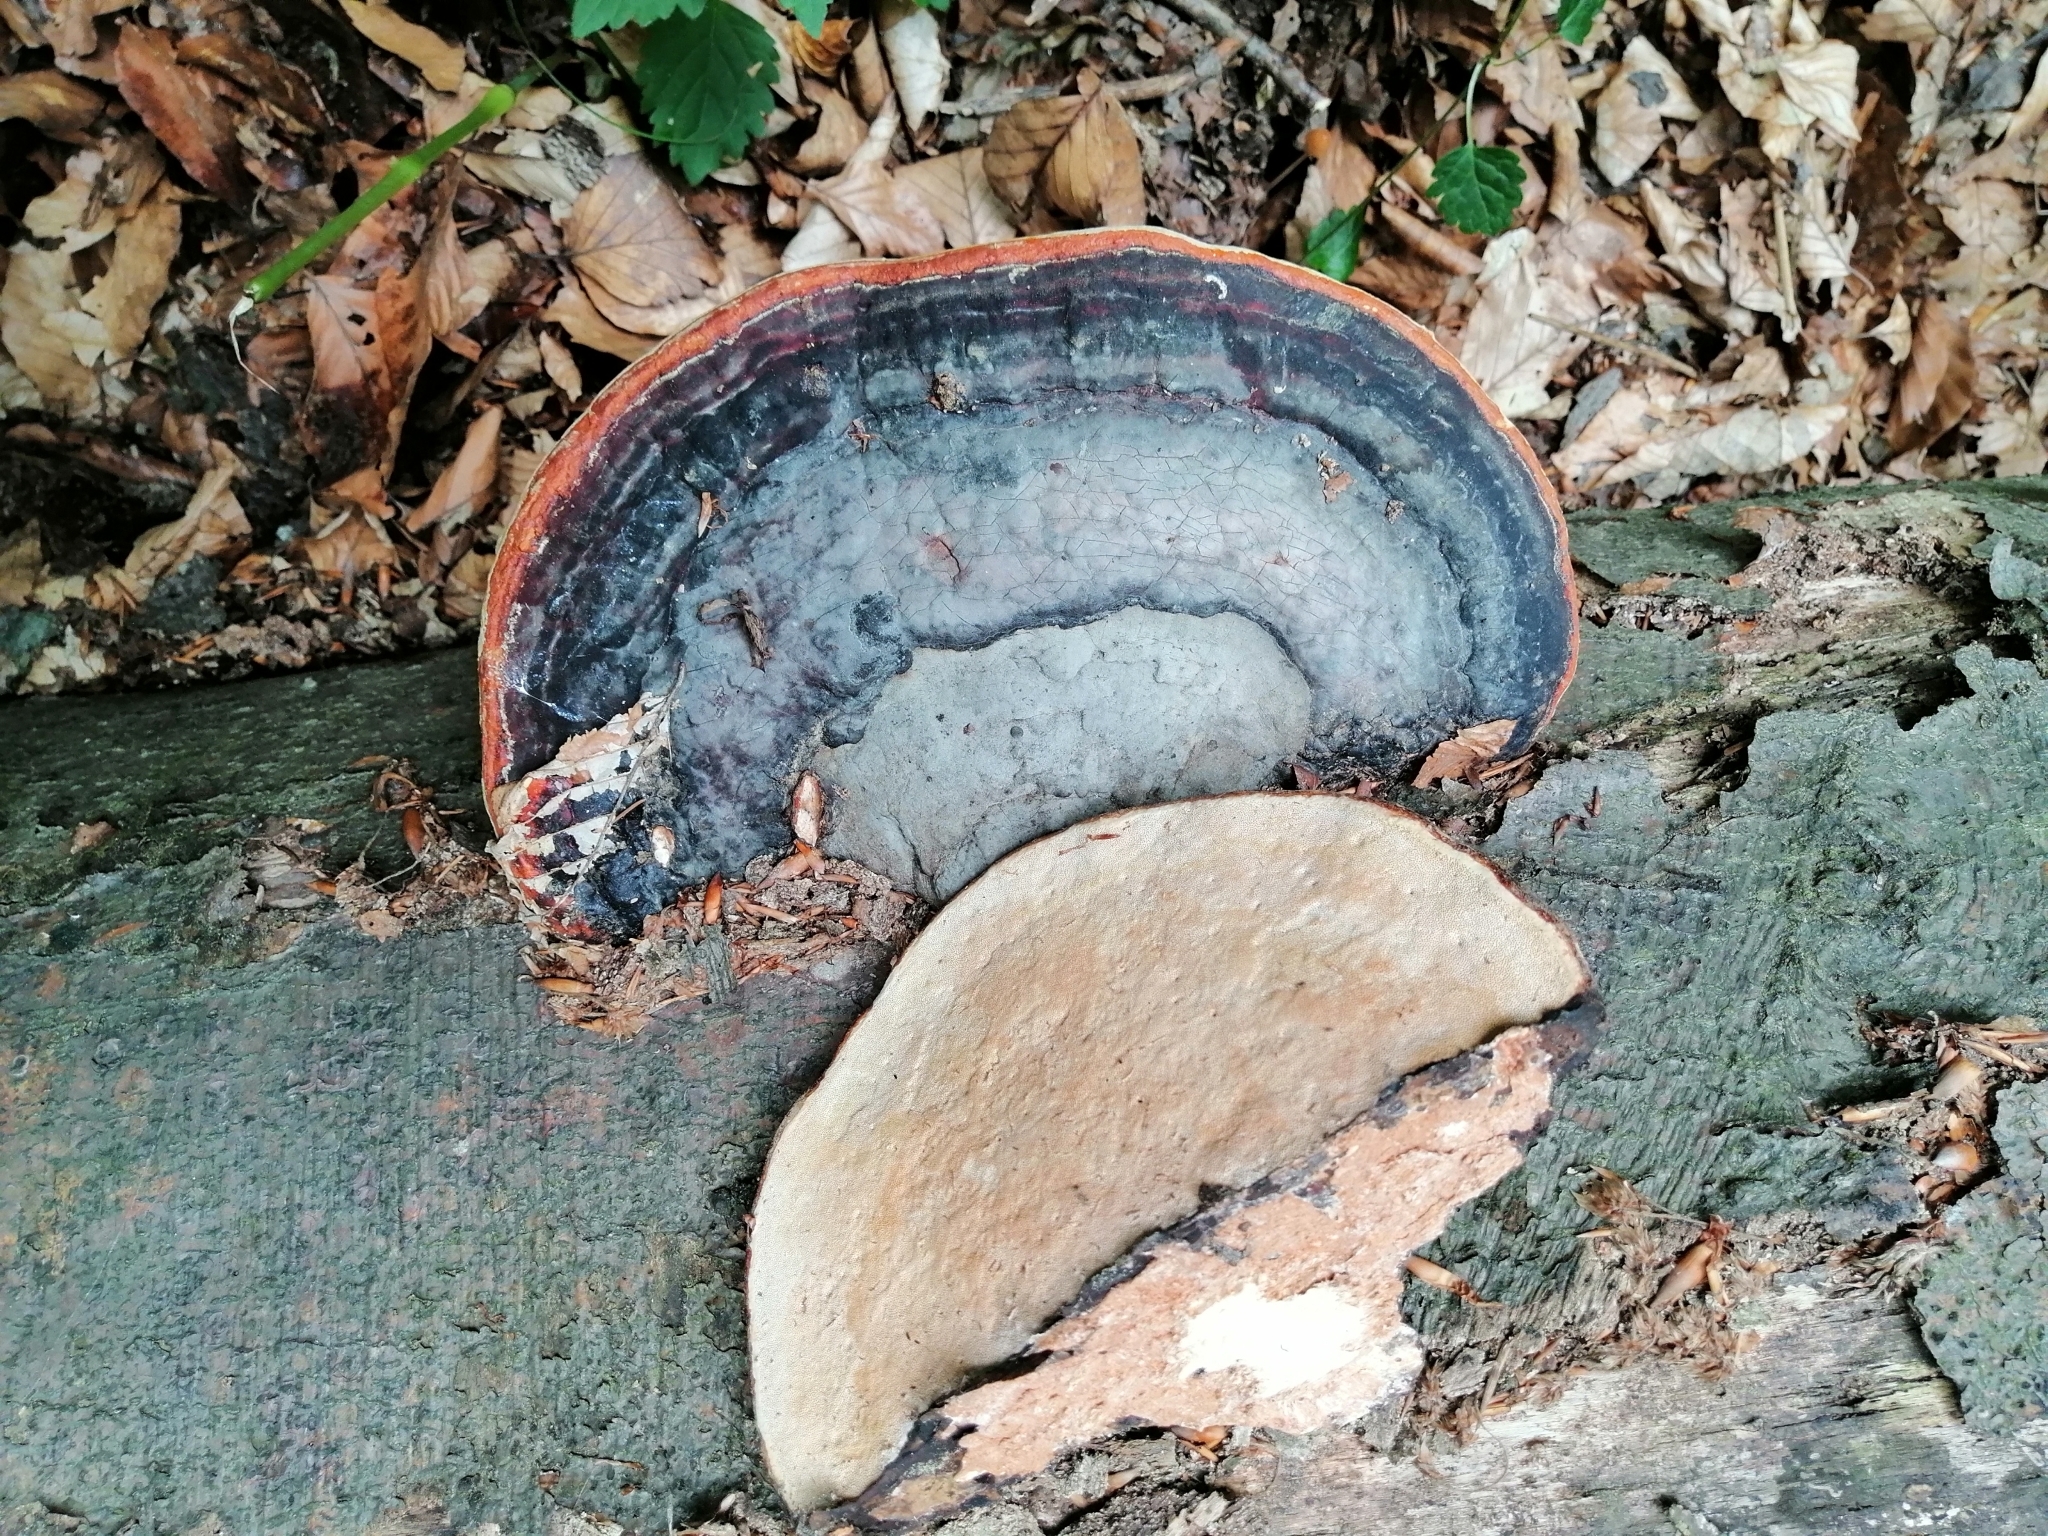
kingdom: Fungi
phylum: Basidiomycota
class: Agaricomycetes
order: Polyporales
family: Fomitopsidaceae
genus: Fomitopsis
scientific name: Fomitopsis pinicola
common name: Red-belted bracket
